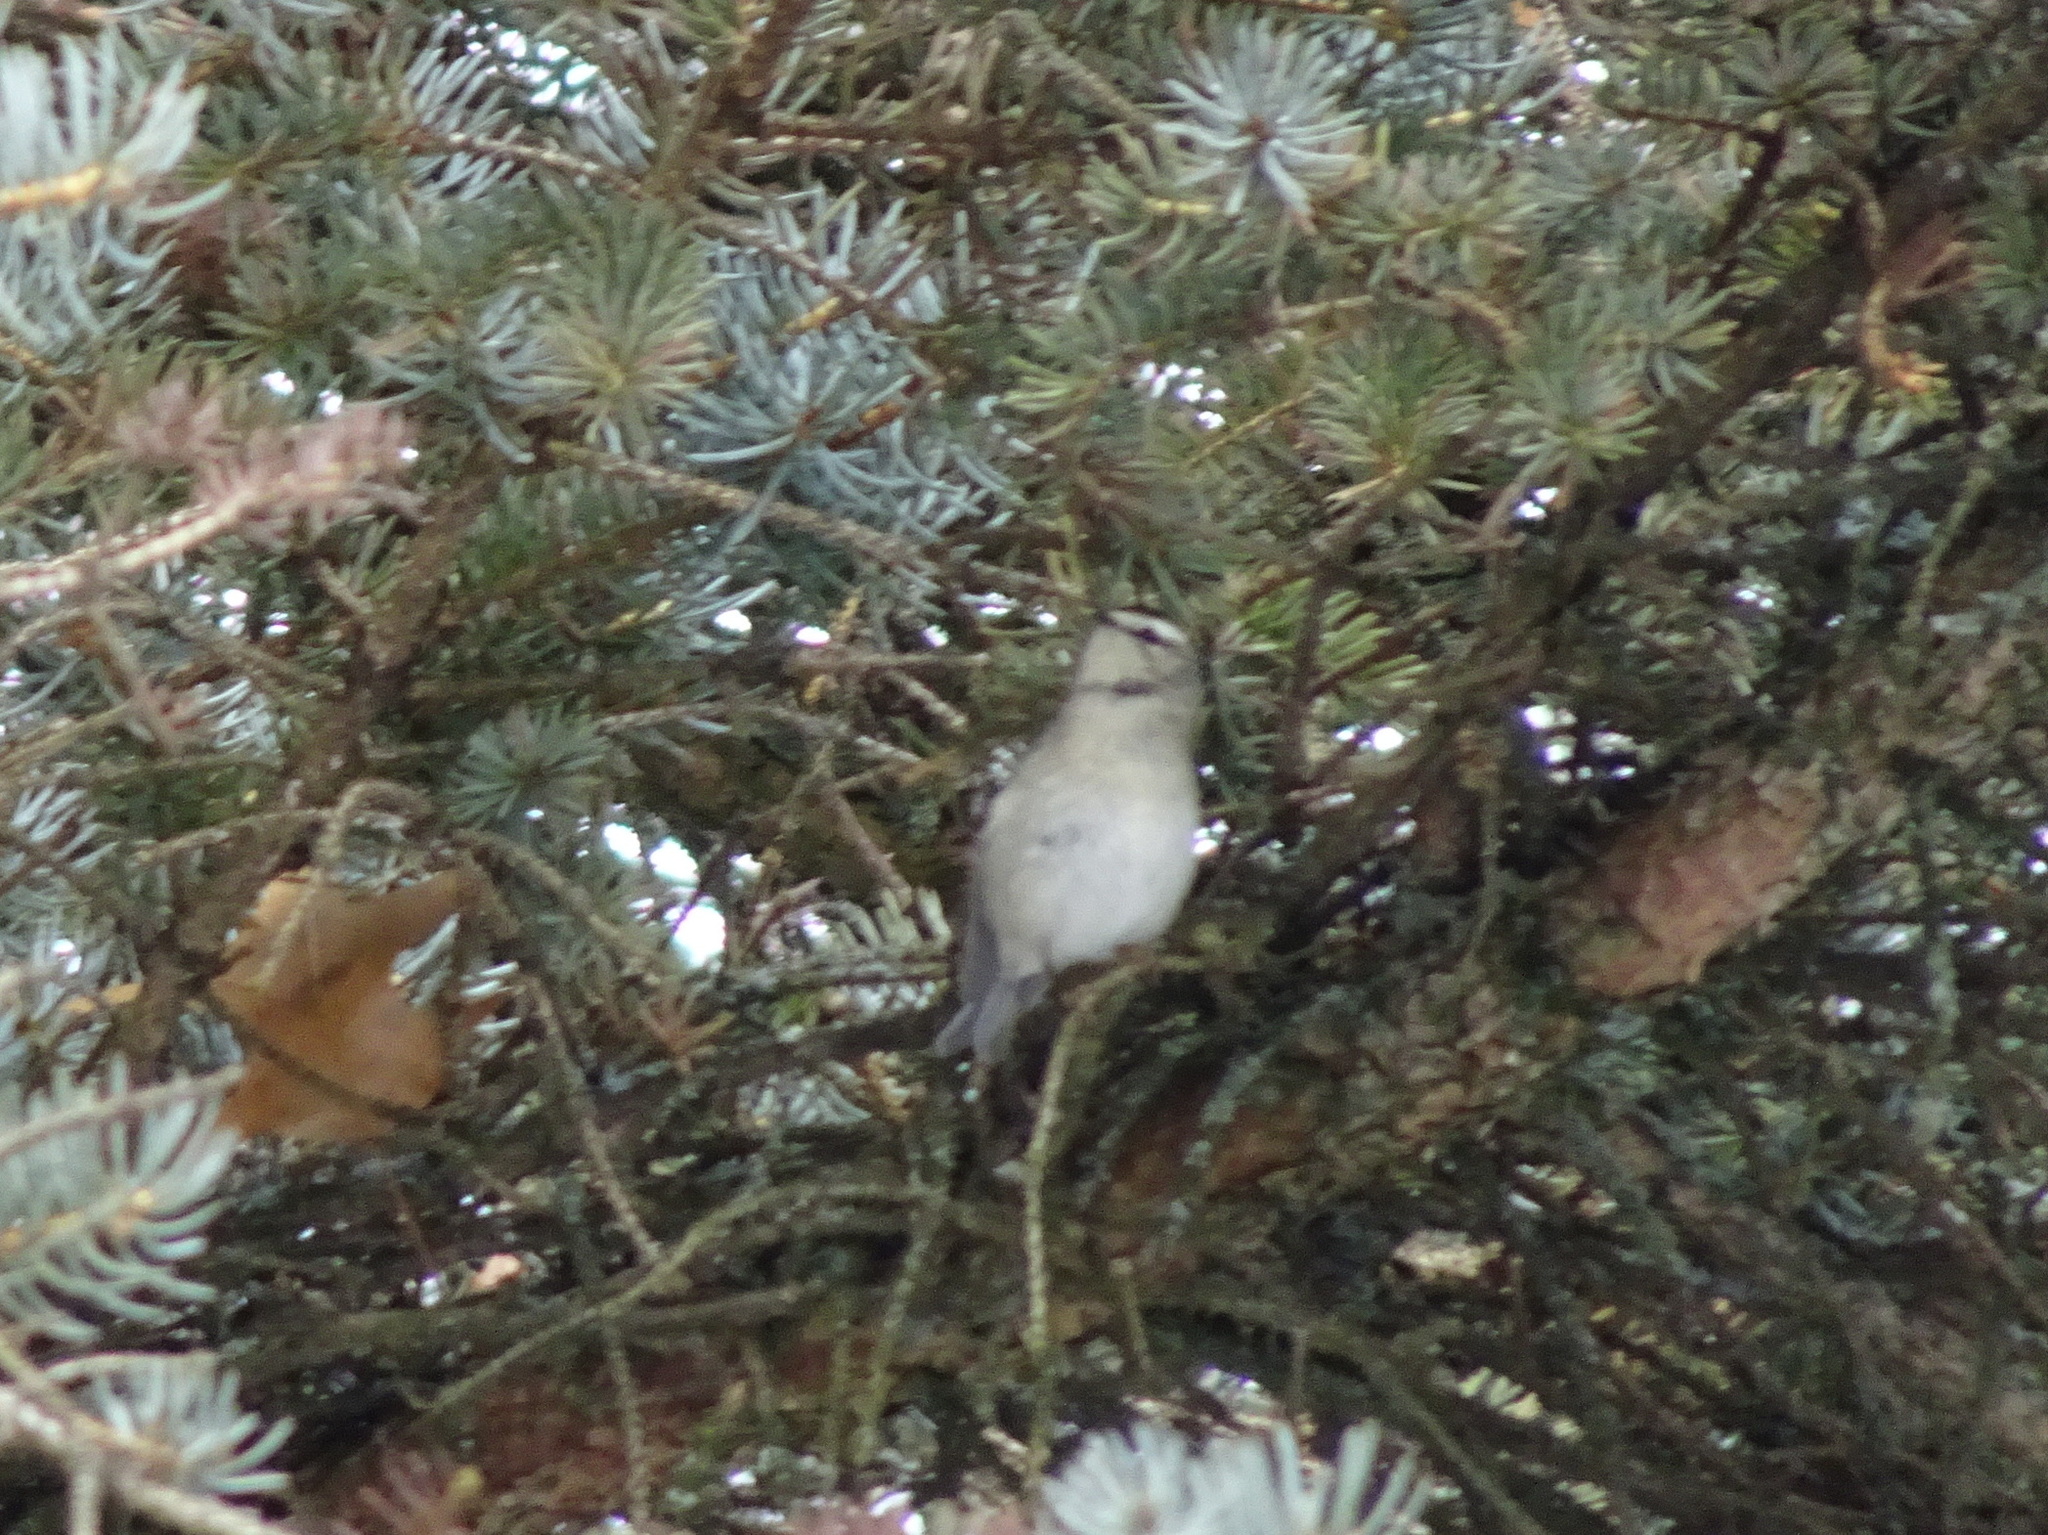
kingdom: Animalia
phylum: Chordata
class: Aves
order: Passeriformes
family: Regulidae
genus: Regulus
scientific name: Regulus satrapa
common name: Golden-crowned kinglet
